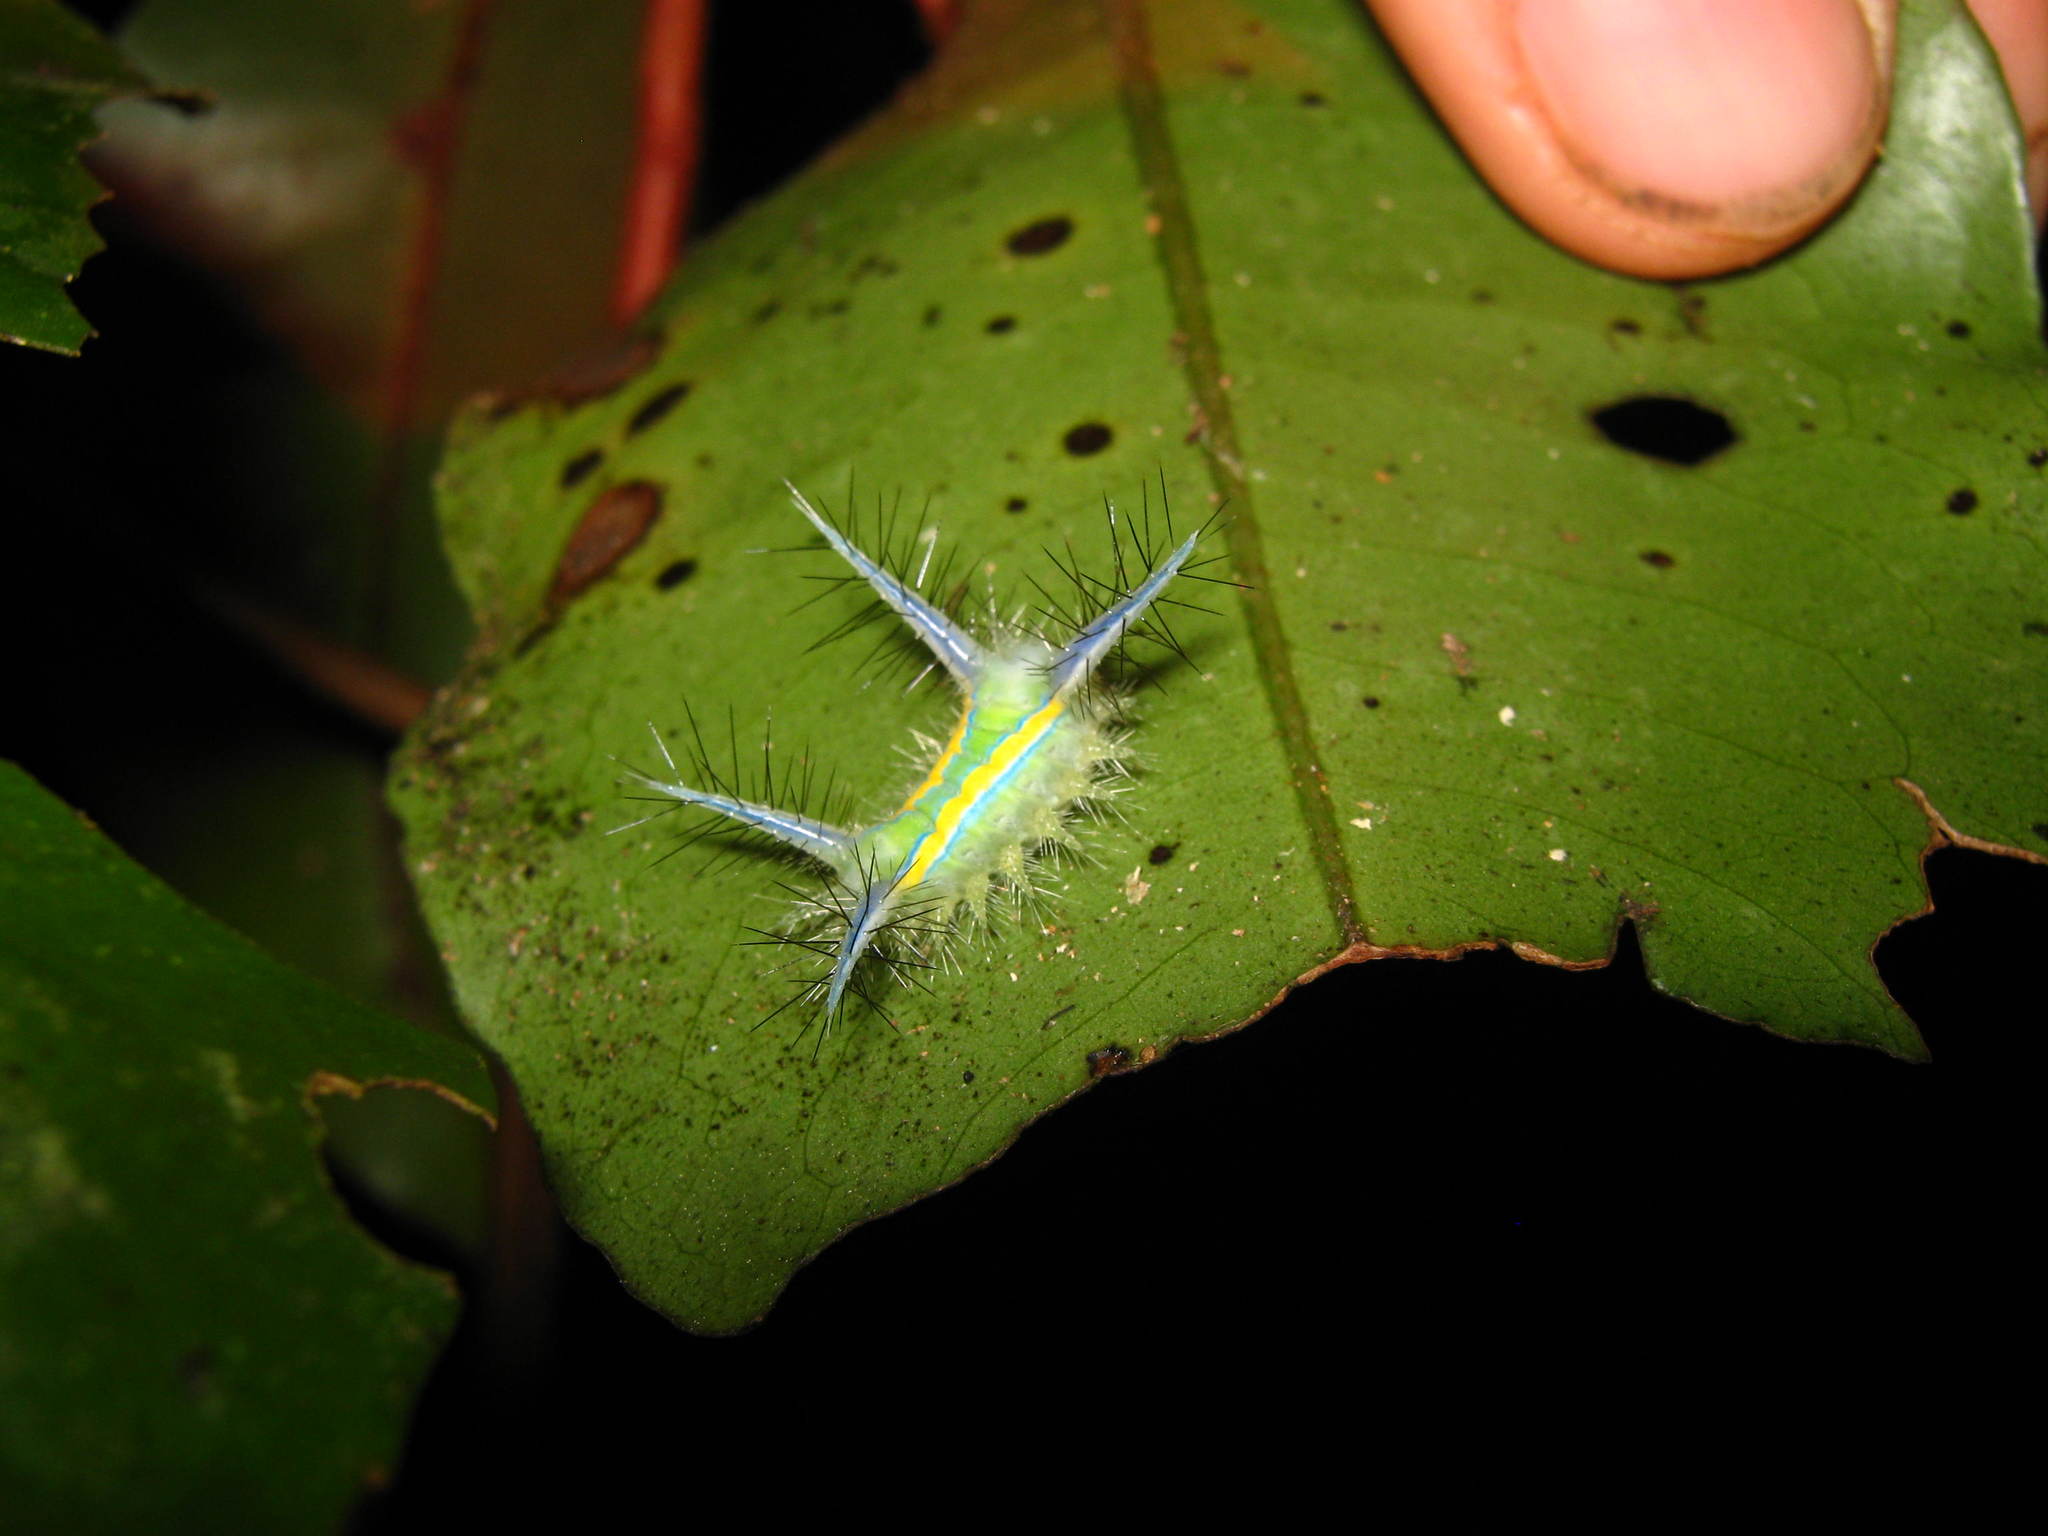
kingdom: Animalia
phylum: Arthropoda
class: Insecta
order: Lepidoptera
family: Limacodidae
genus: Parasa
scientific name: Parasa wellesca
